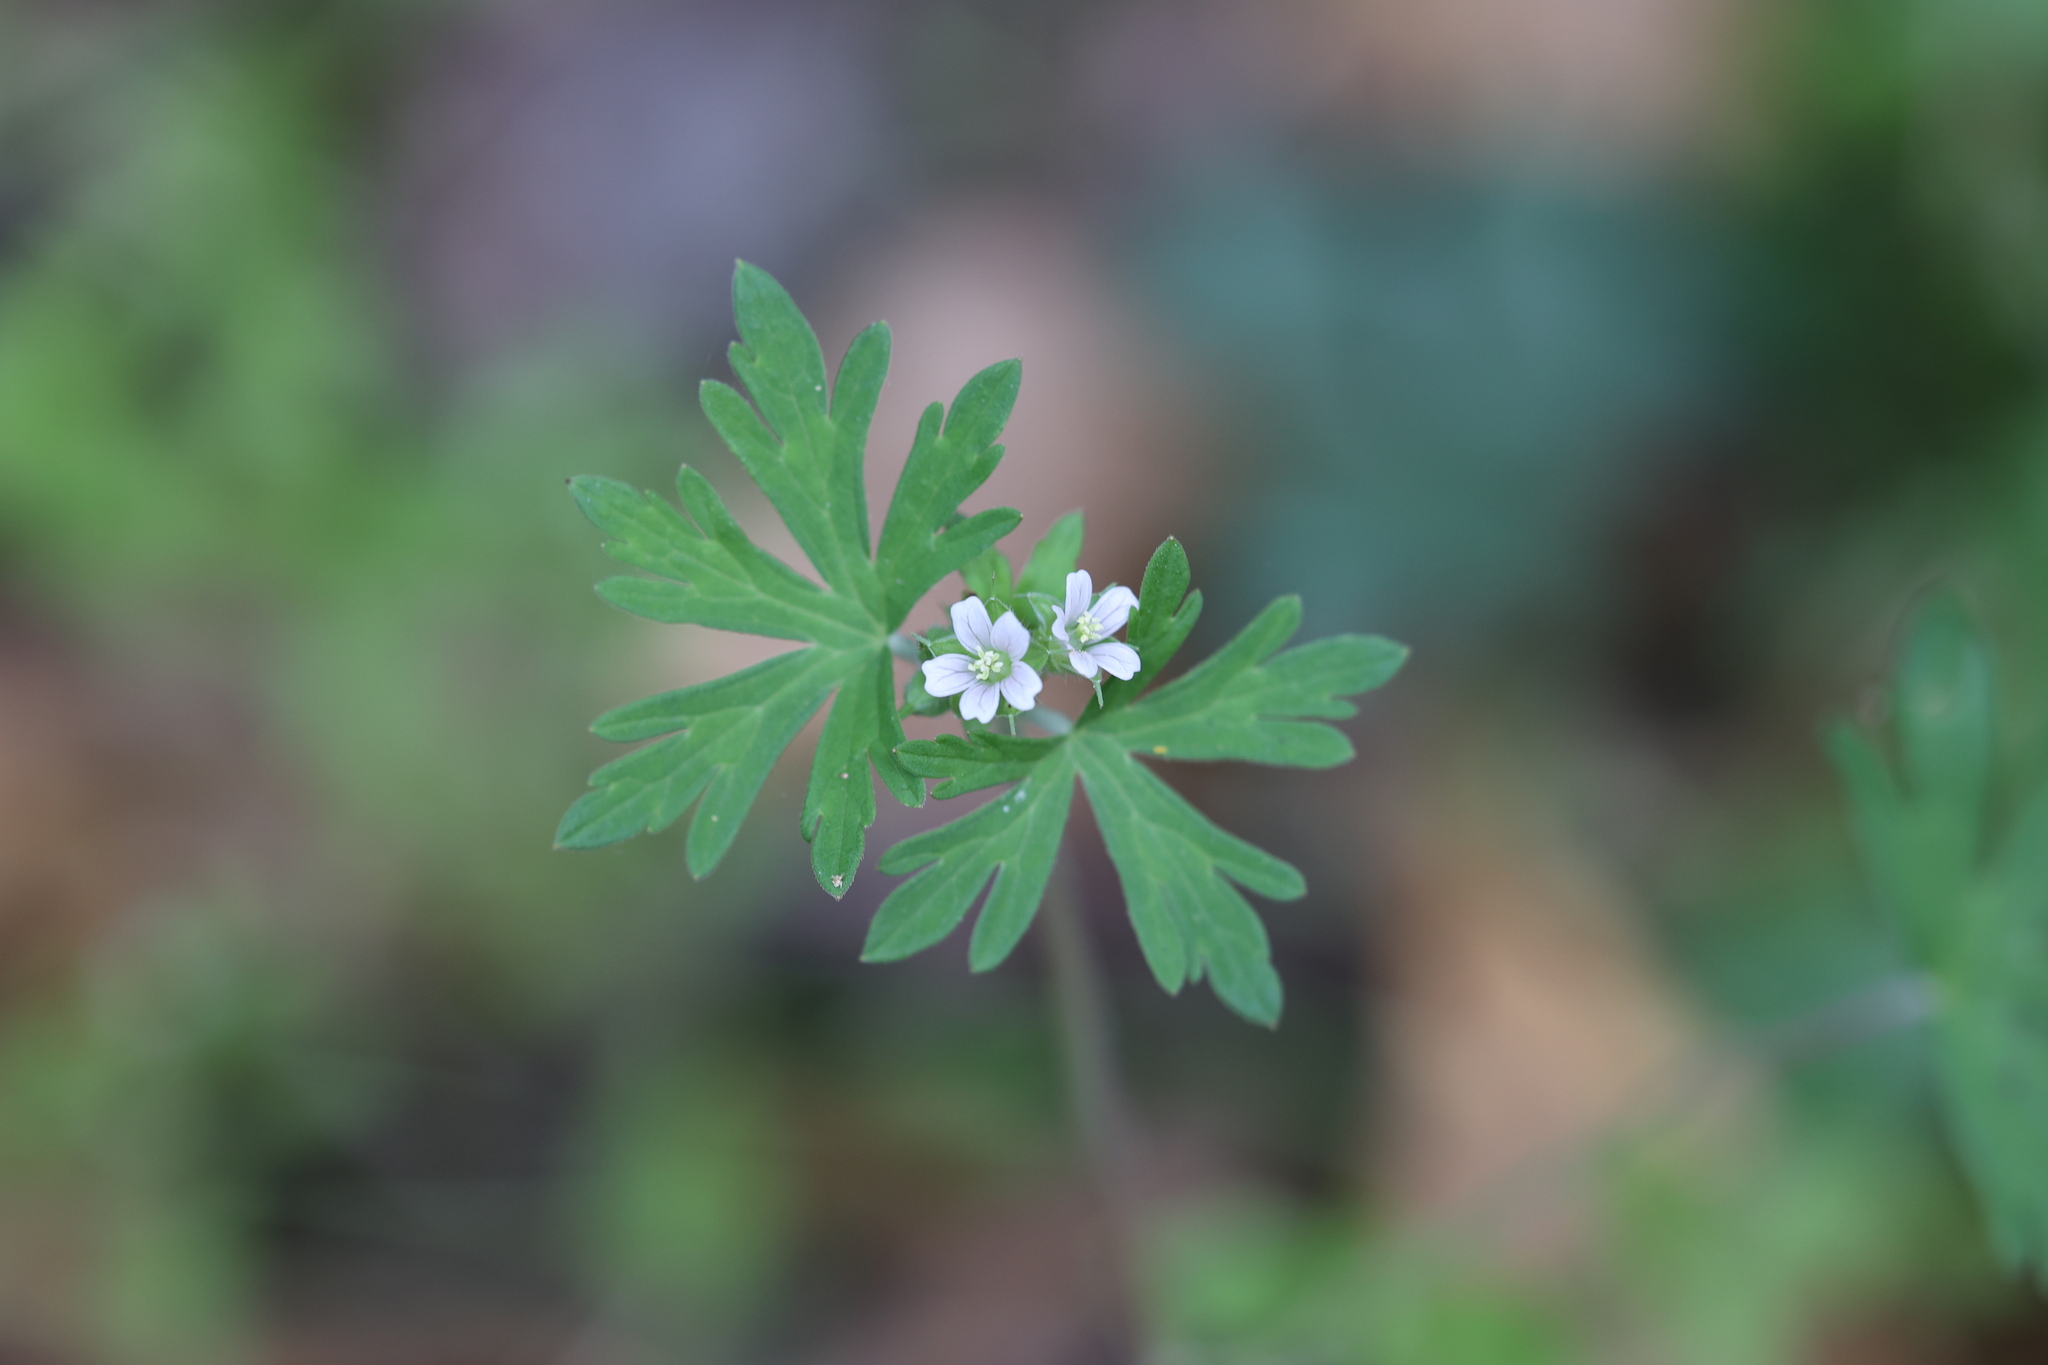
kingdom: Plantae
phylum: Tracheophyta
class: Magnoliopsida
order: Geraniales
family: Geraniaceae
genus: Geranium
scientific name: Geranium carolinianum
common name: Carolina crane's-bill
